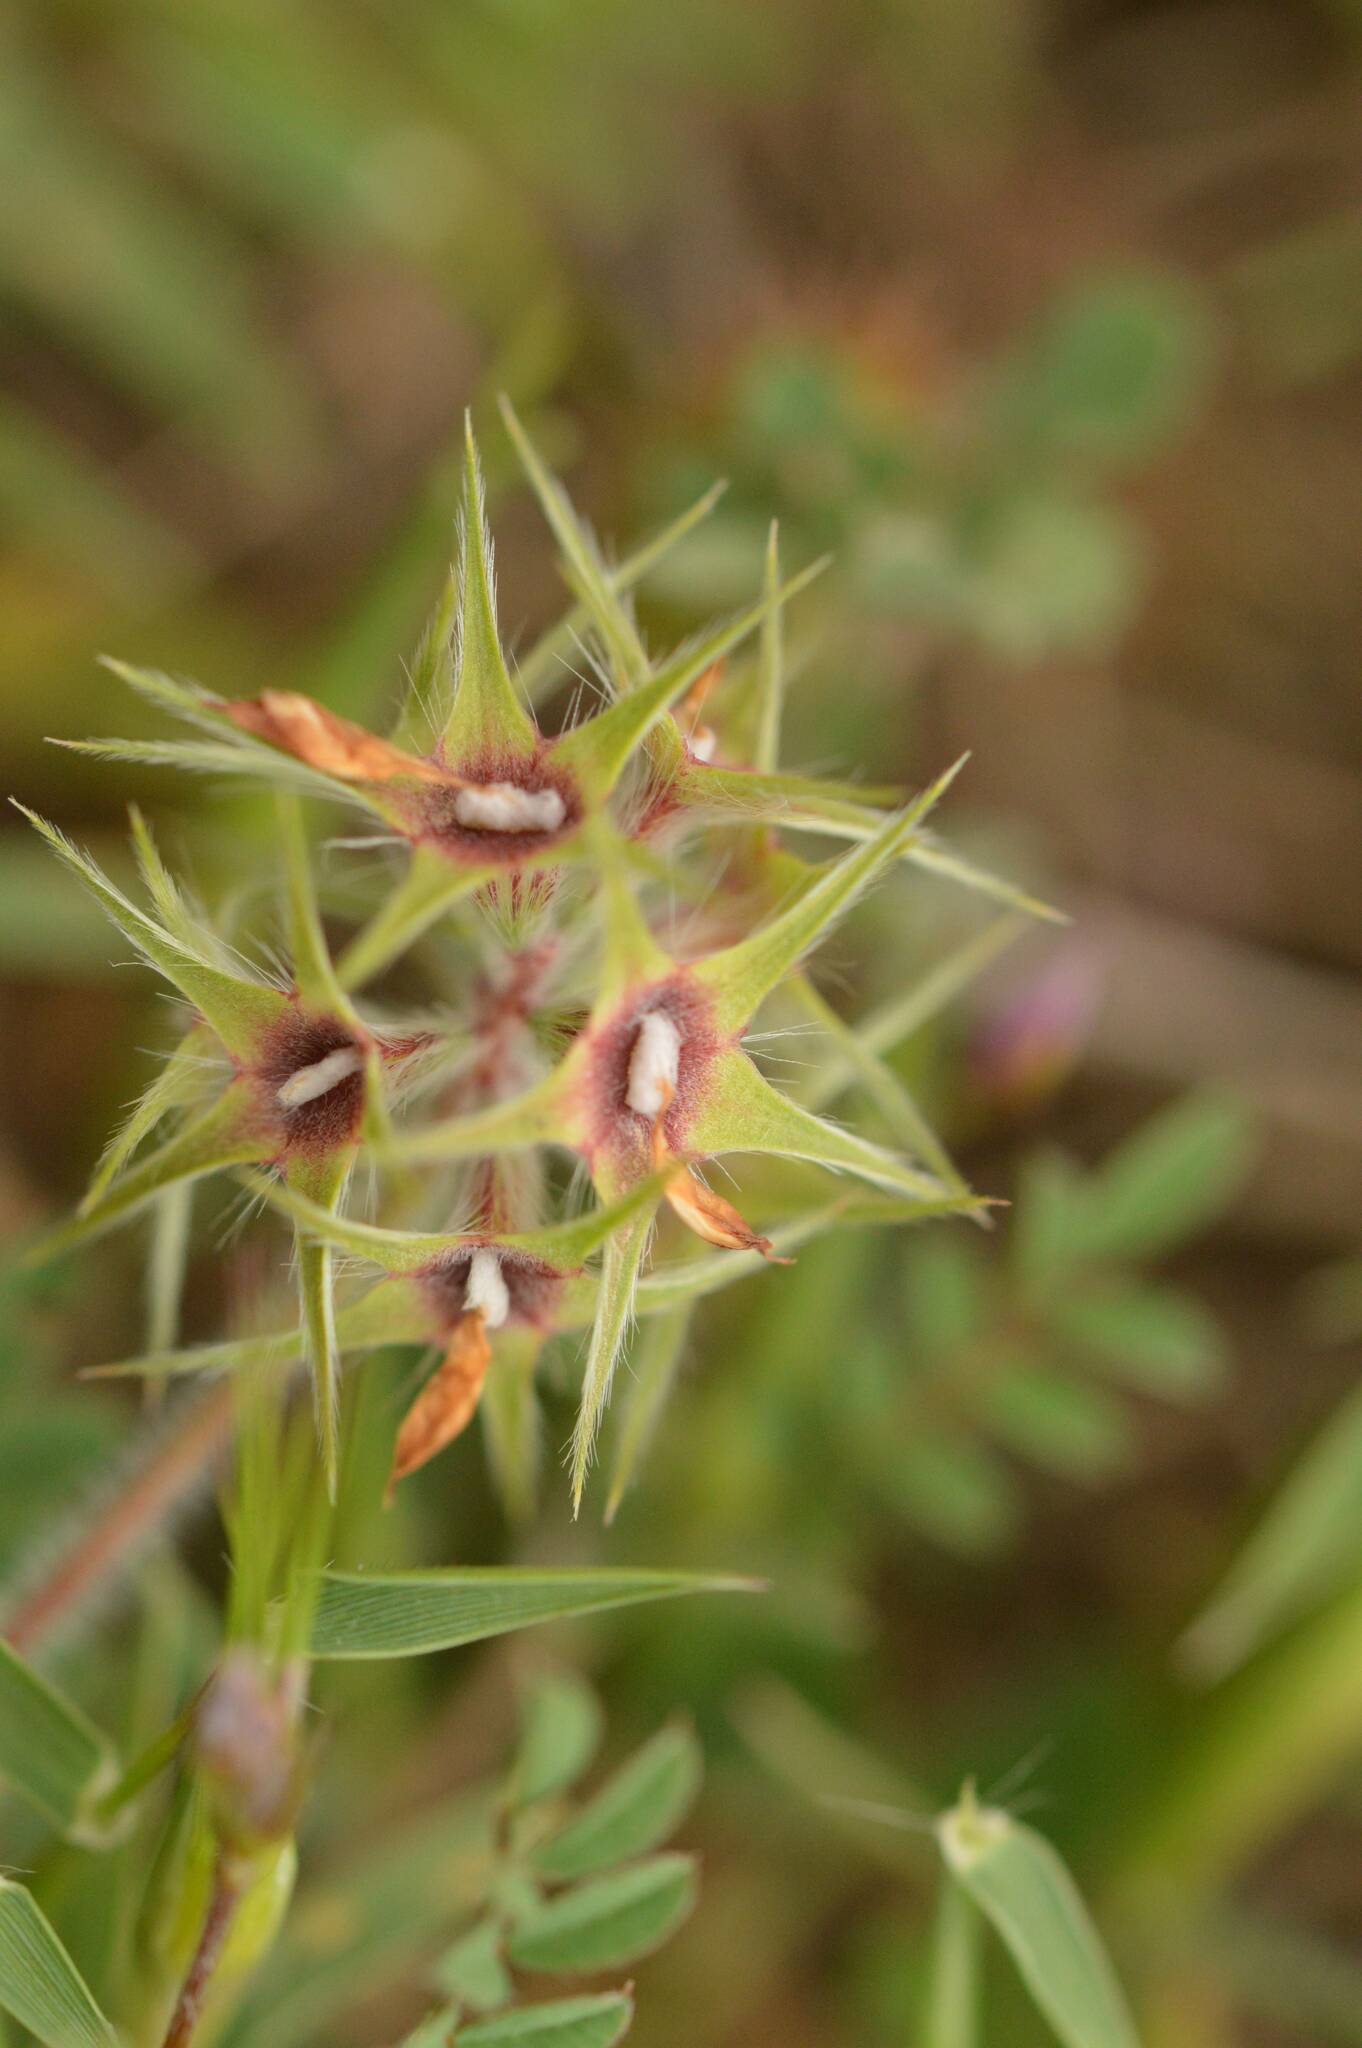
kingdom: Plantae
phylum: Tracheophyta
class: Magnoliopsida
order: Fabales
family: Fabaceae
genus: Trifolium
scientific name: Trifolium stellatum
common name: Starry clover
